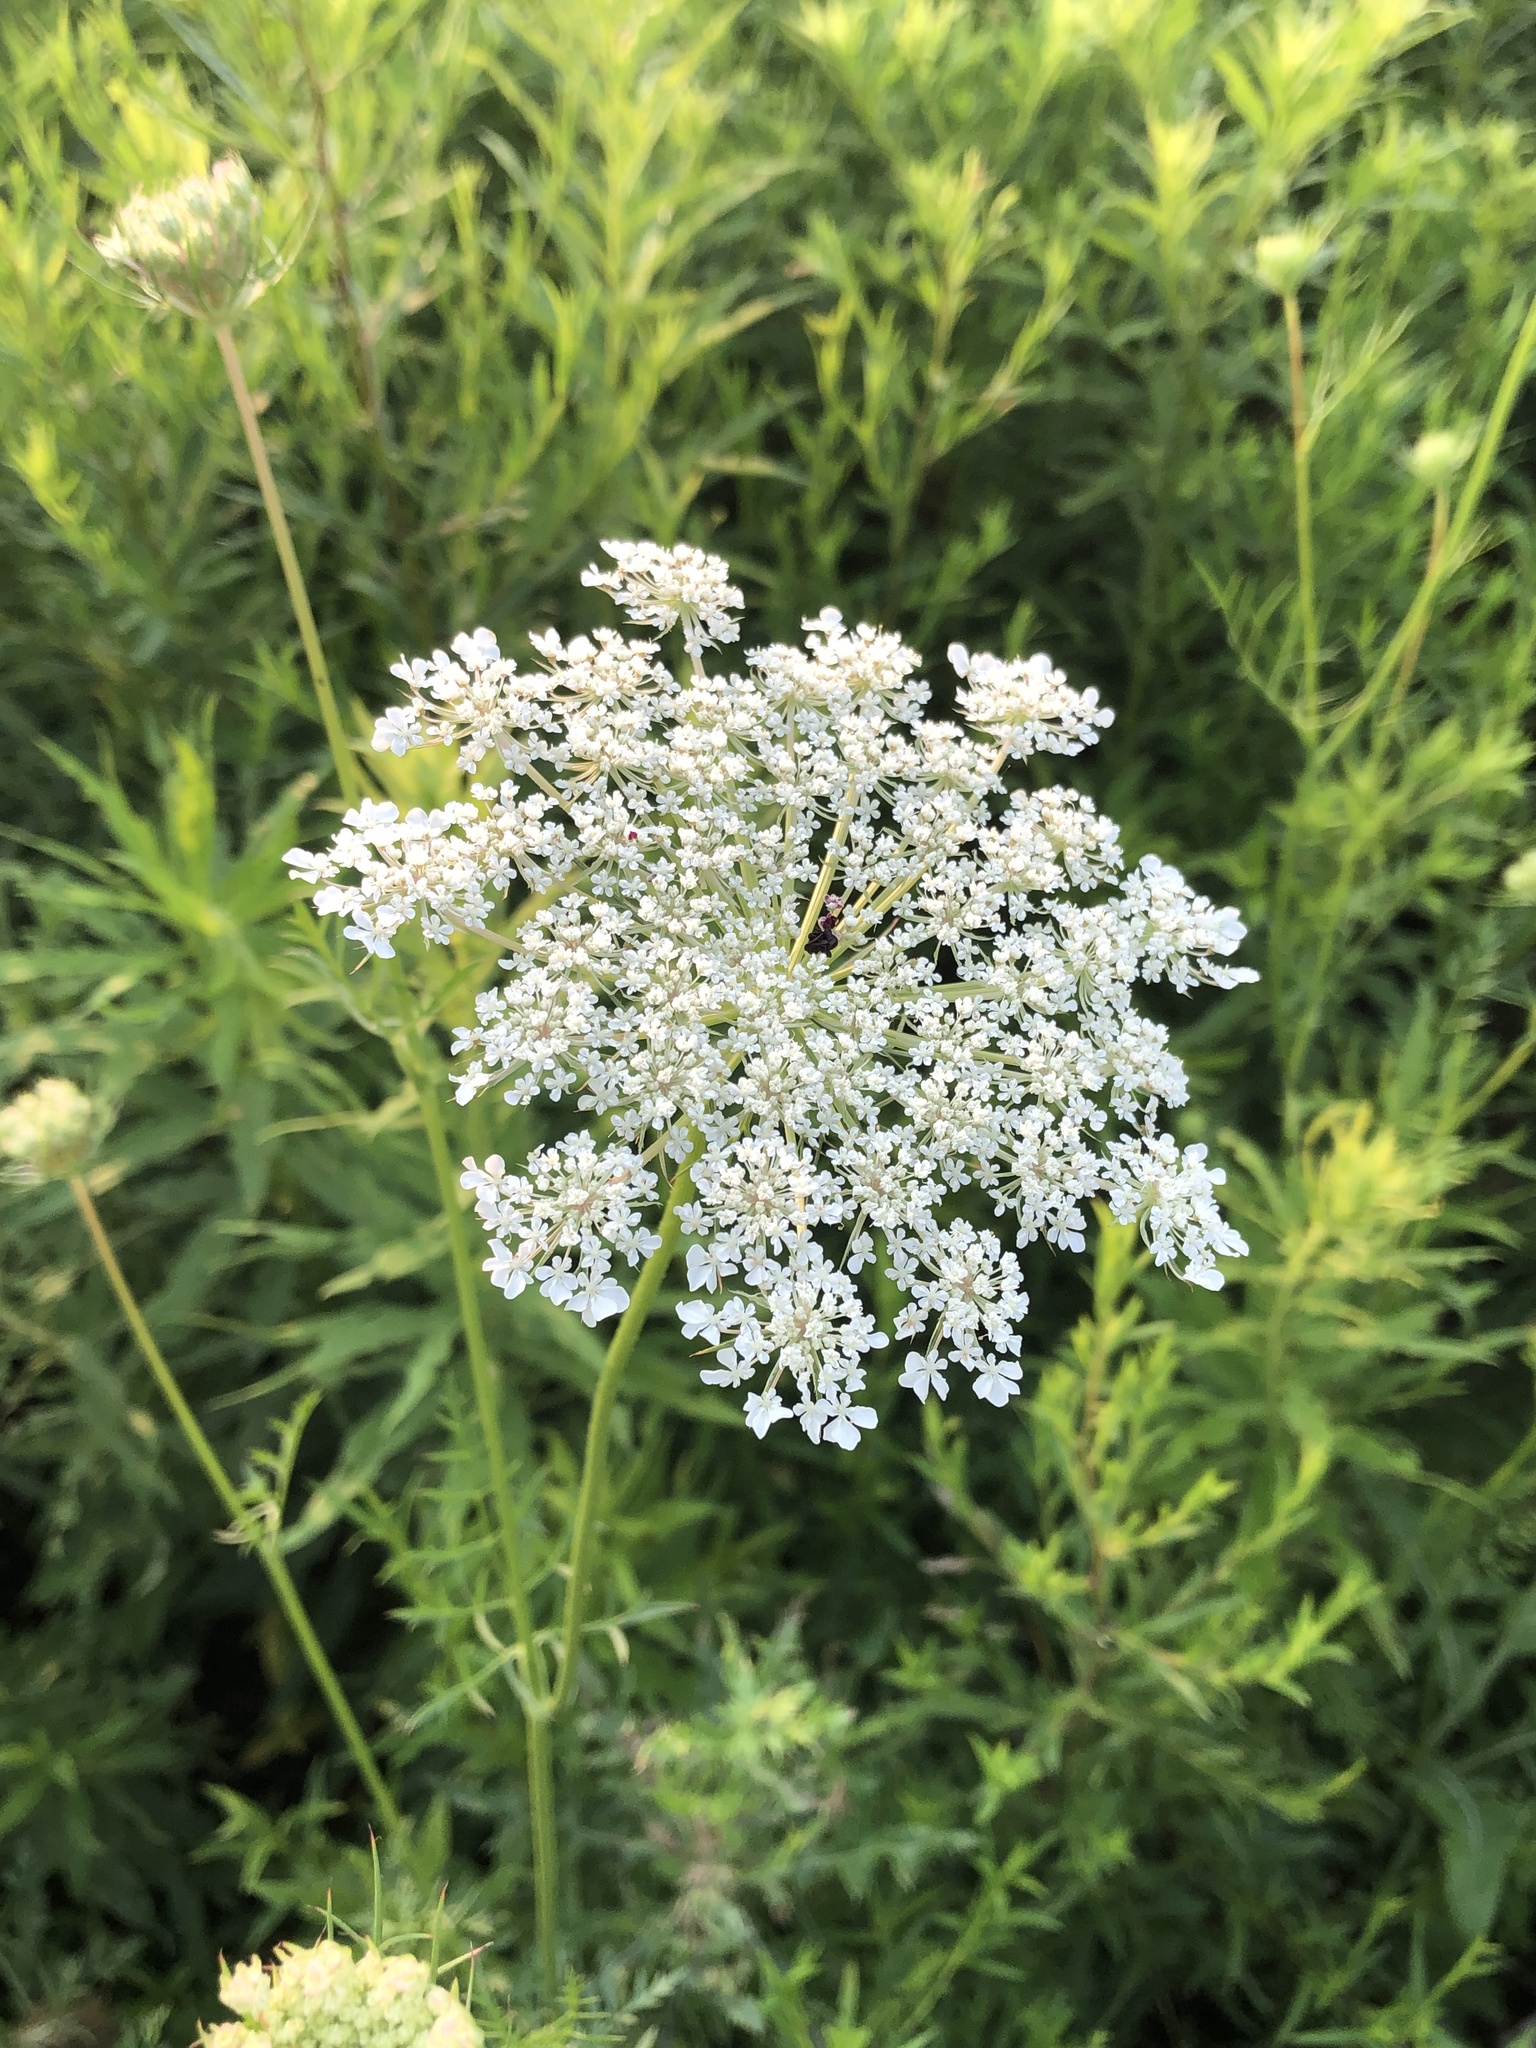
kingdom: Plantae
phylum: Tracheophyta
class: Magnoliopsida
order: Apiales
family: Apiaceae
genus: Daucus
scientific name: Daucus carota
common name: Wild carrot
